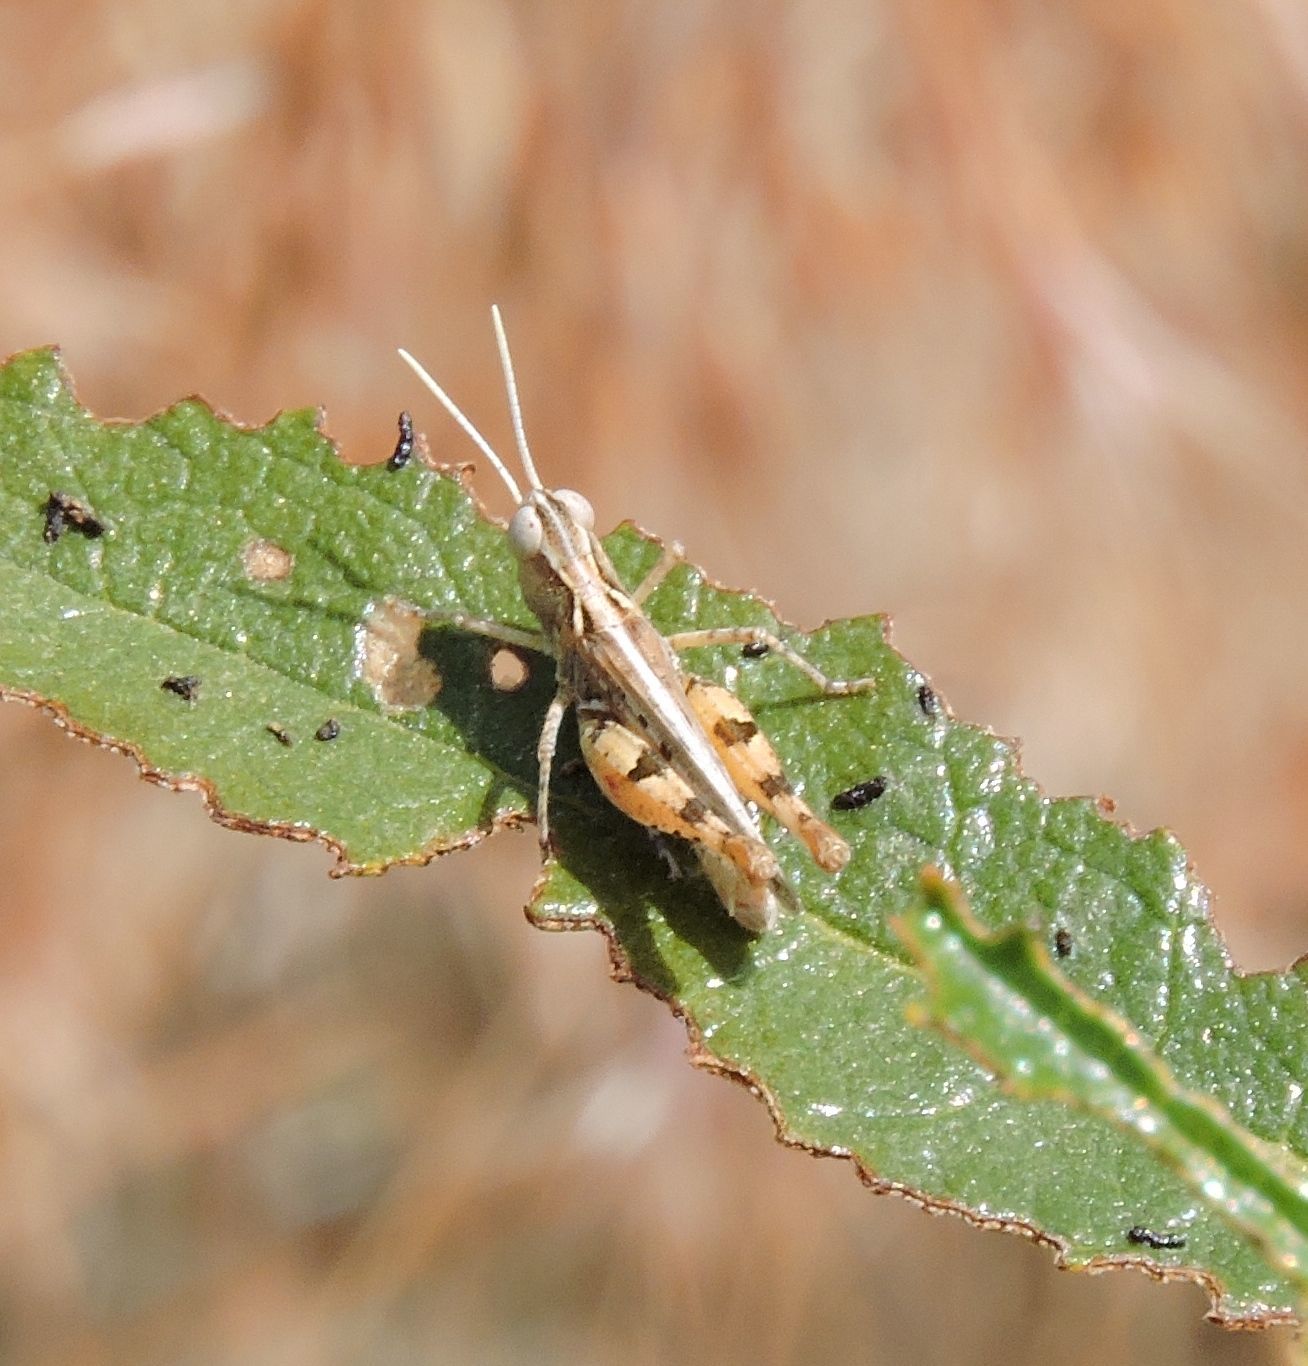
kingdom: Animalia
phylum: Arthropoda
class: Insecta
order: Orthoptera
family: Acrididae
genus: Eupnigodes
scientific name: Eupnigodes sierranus
